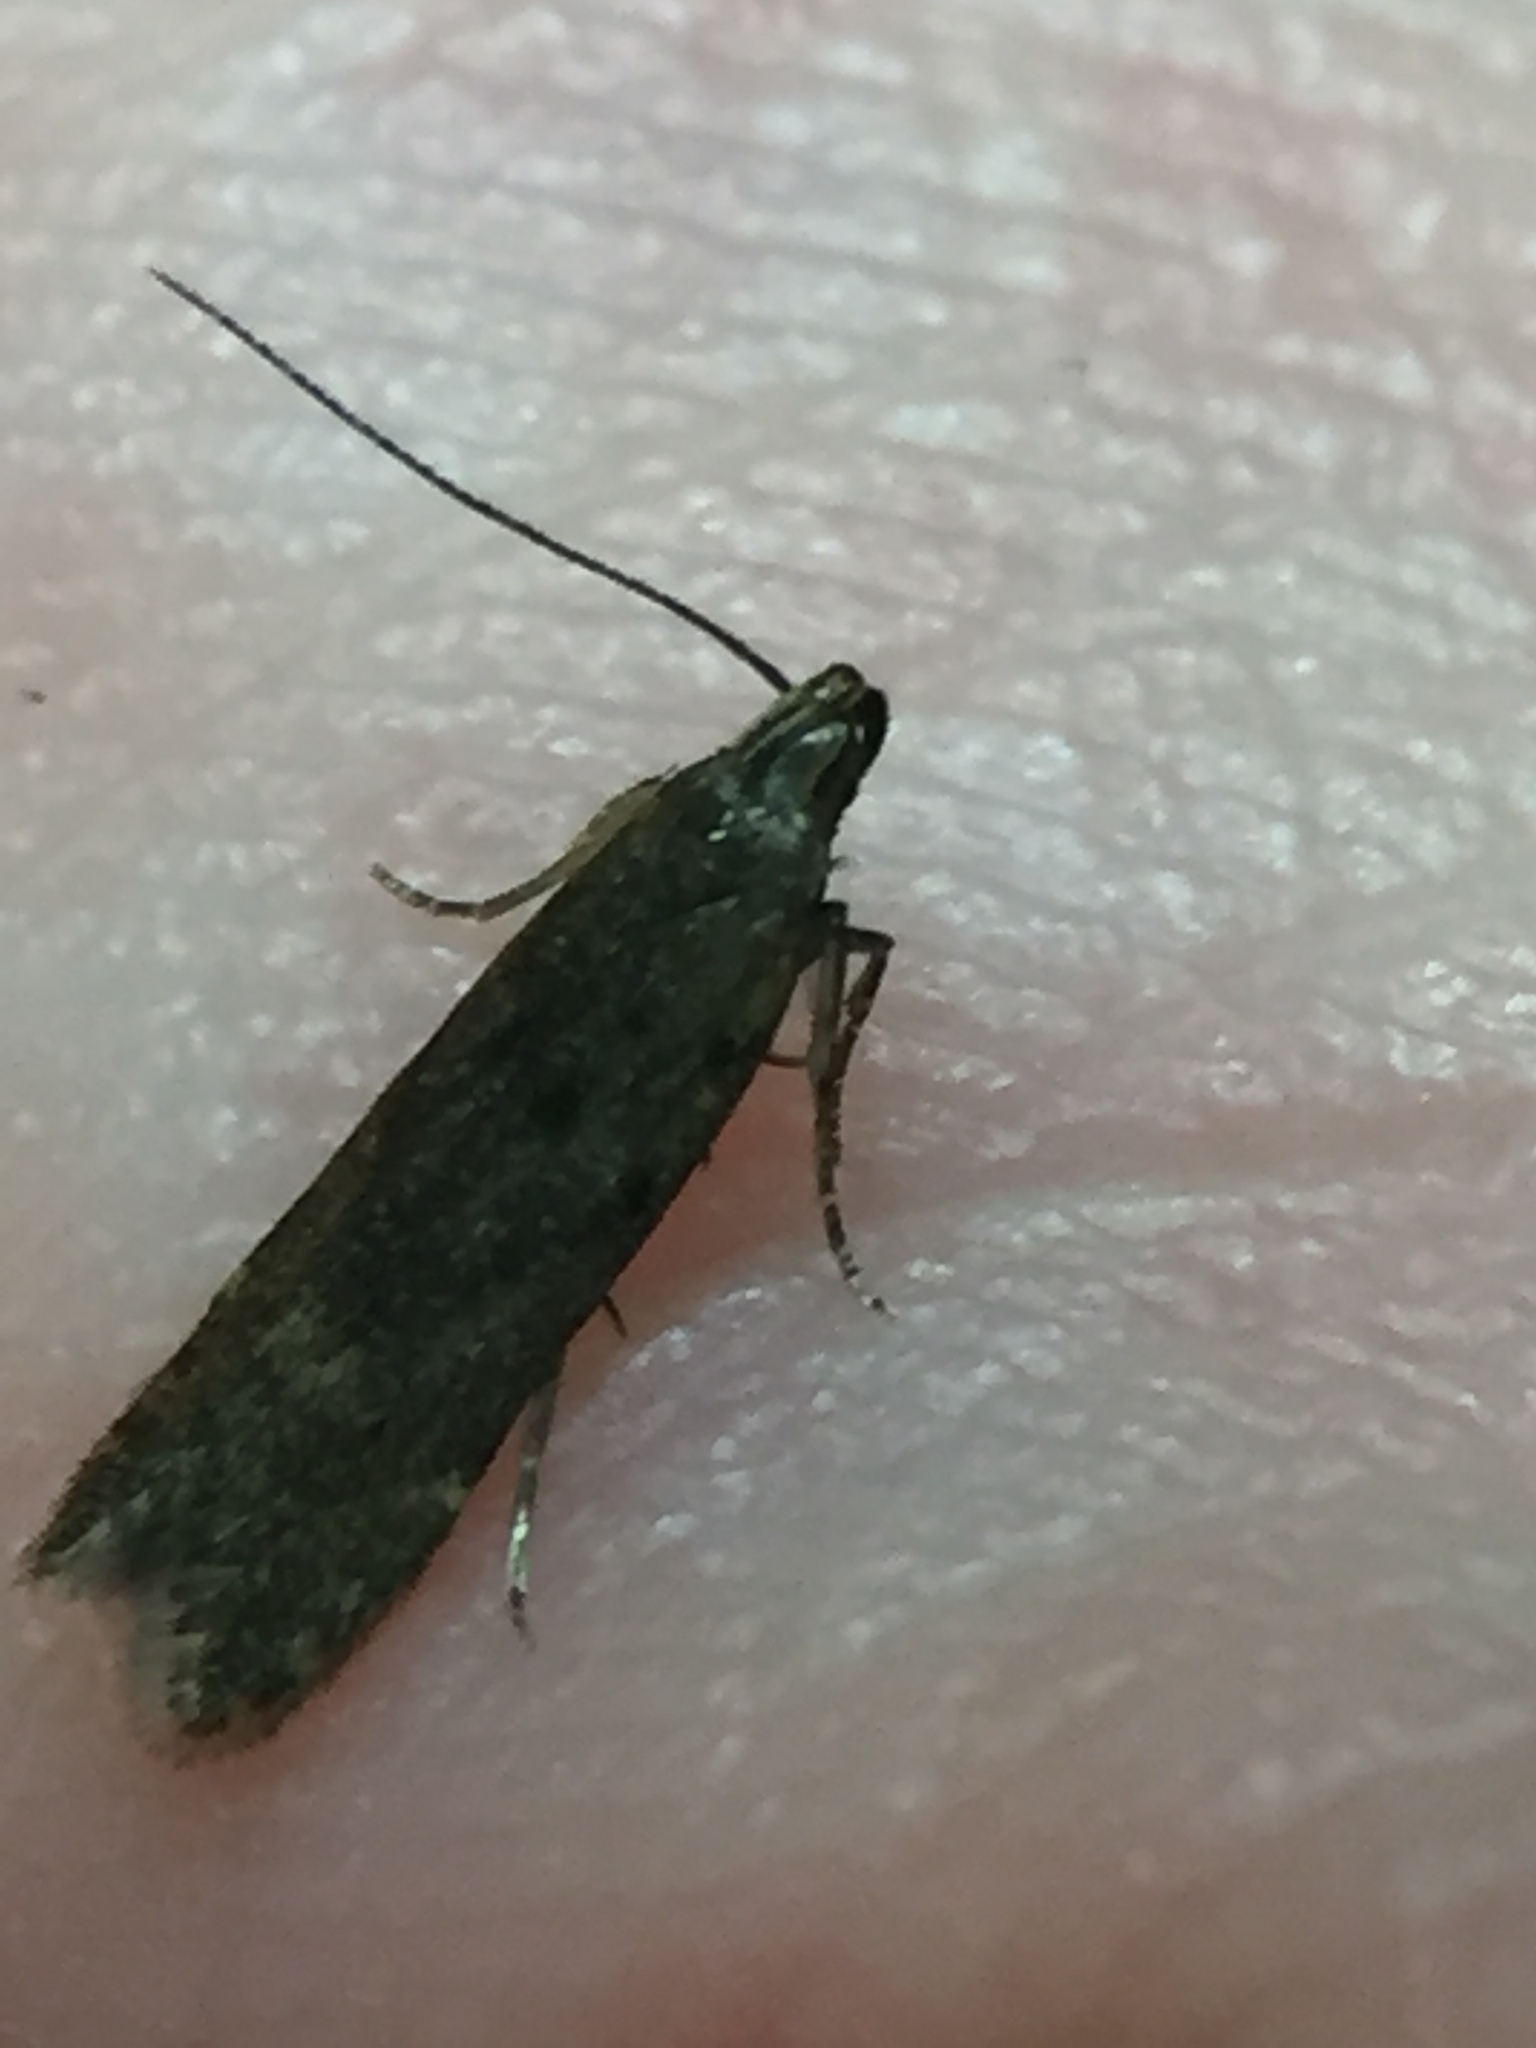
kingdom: Animalia
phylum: Arthropoda
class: Insecta
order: Lepidoptera
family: Gelechiidae
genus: Bilobata
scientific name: Bilobata subsecivella
